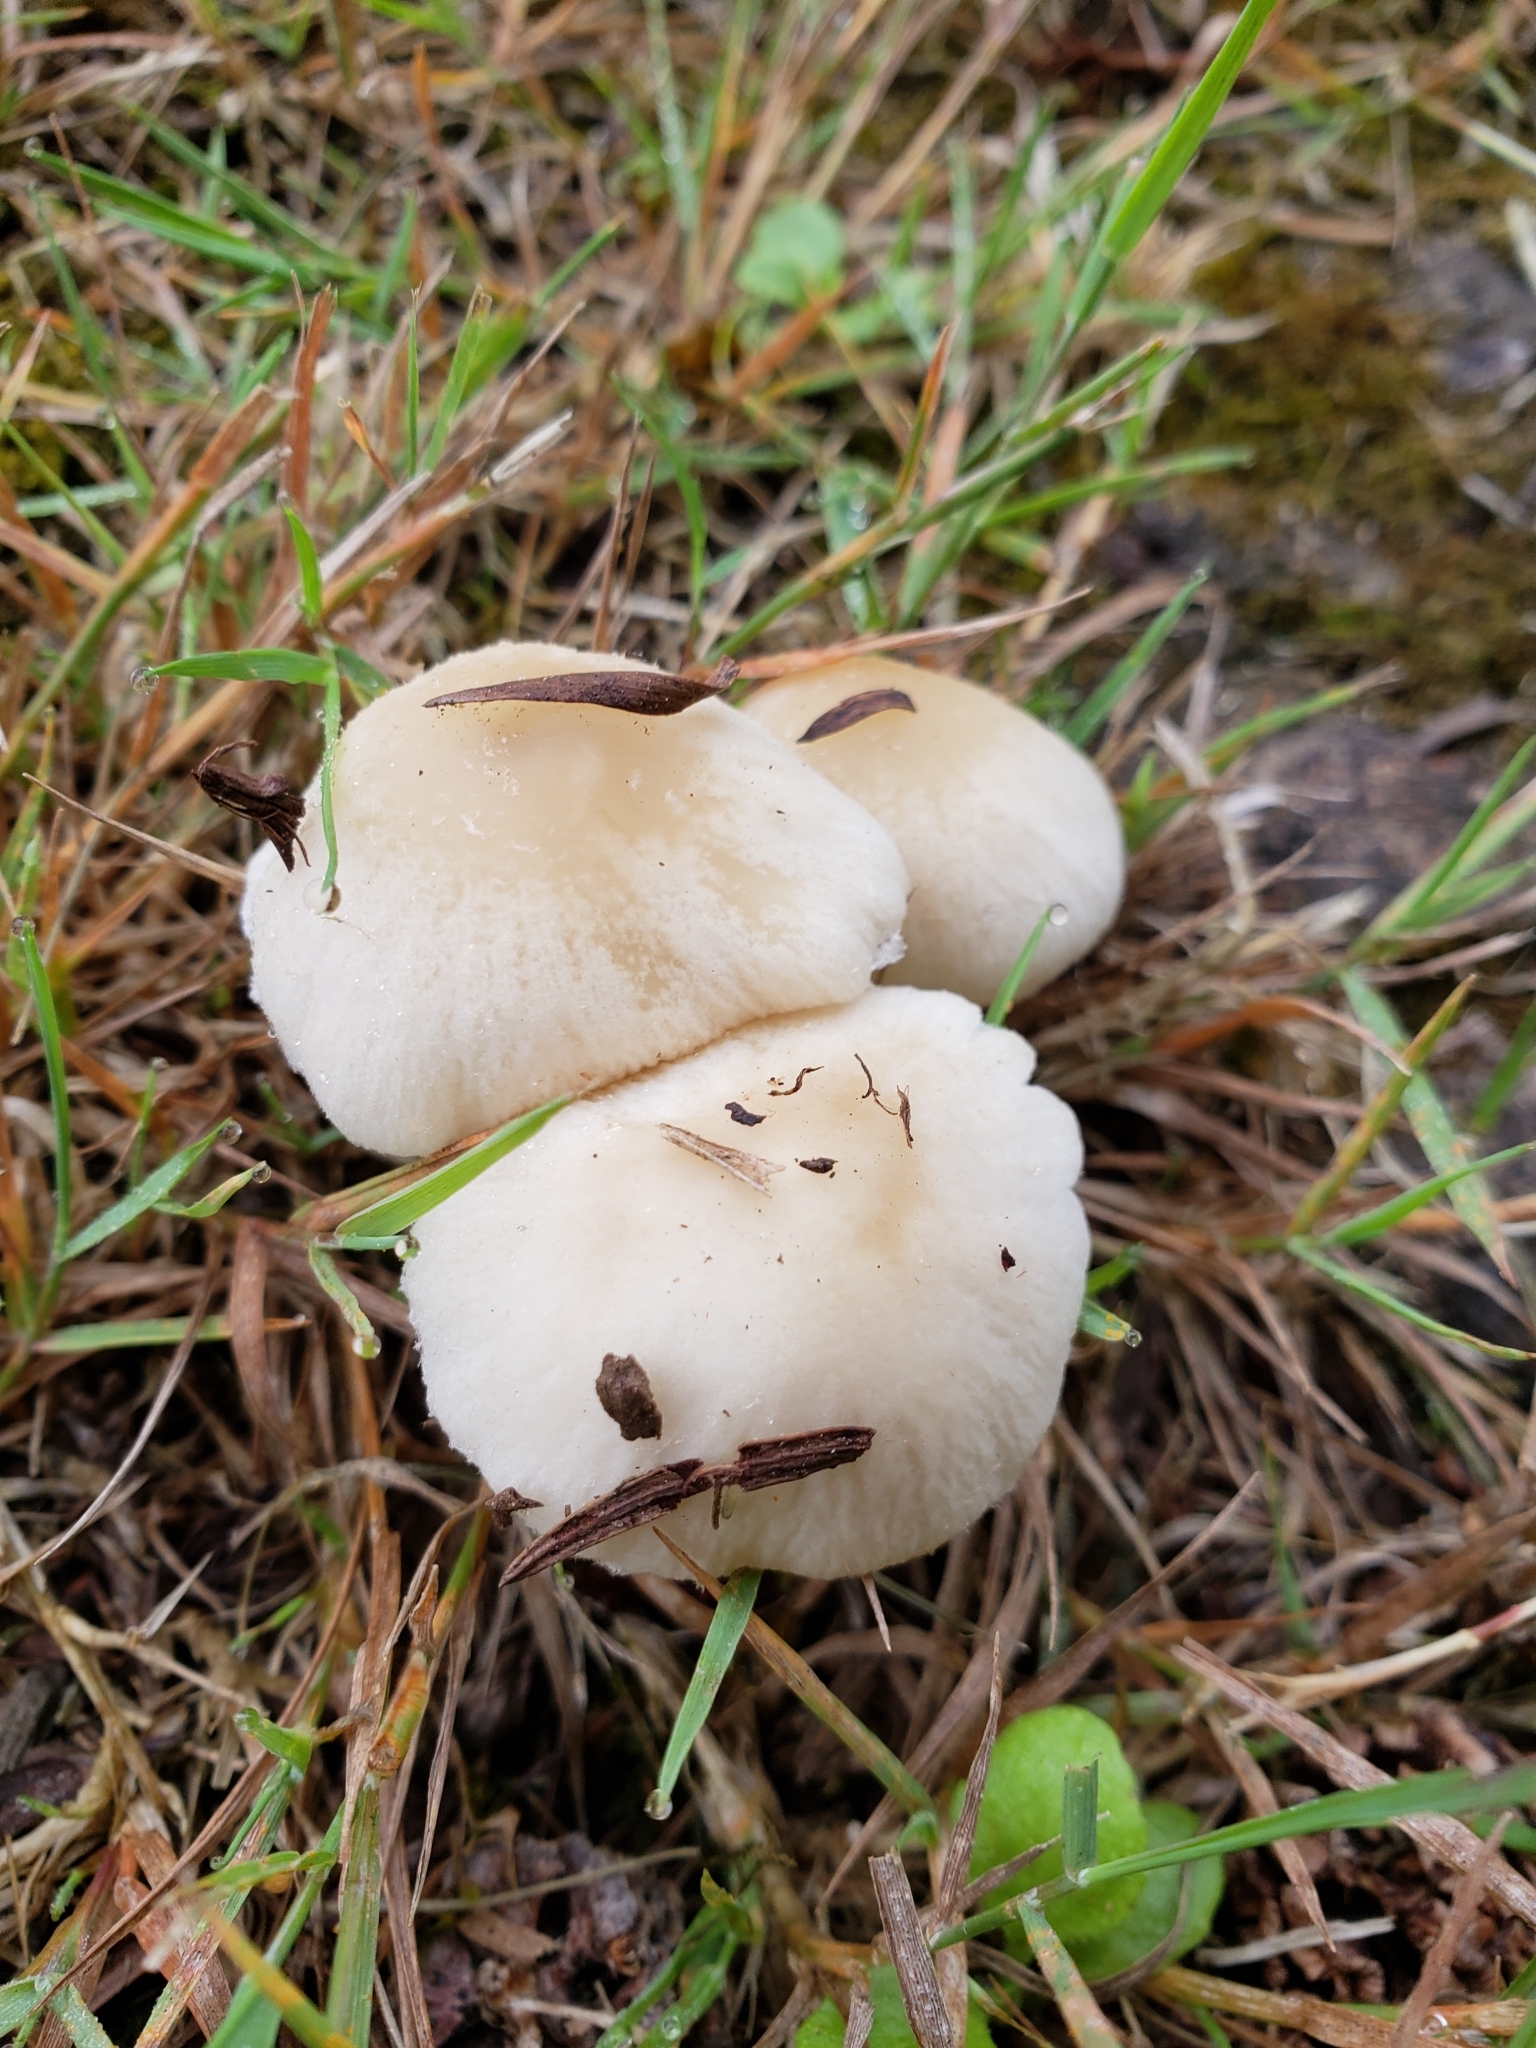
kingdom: Fungi
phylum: Basidiomycota
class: Agaricomycetes
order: Agaricales
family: Psathyrellaceae
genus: Candolleomyces
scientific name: Candolleomyces candolleanus
